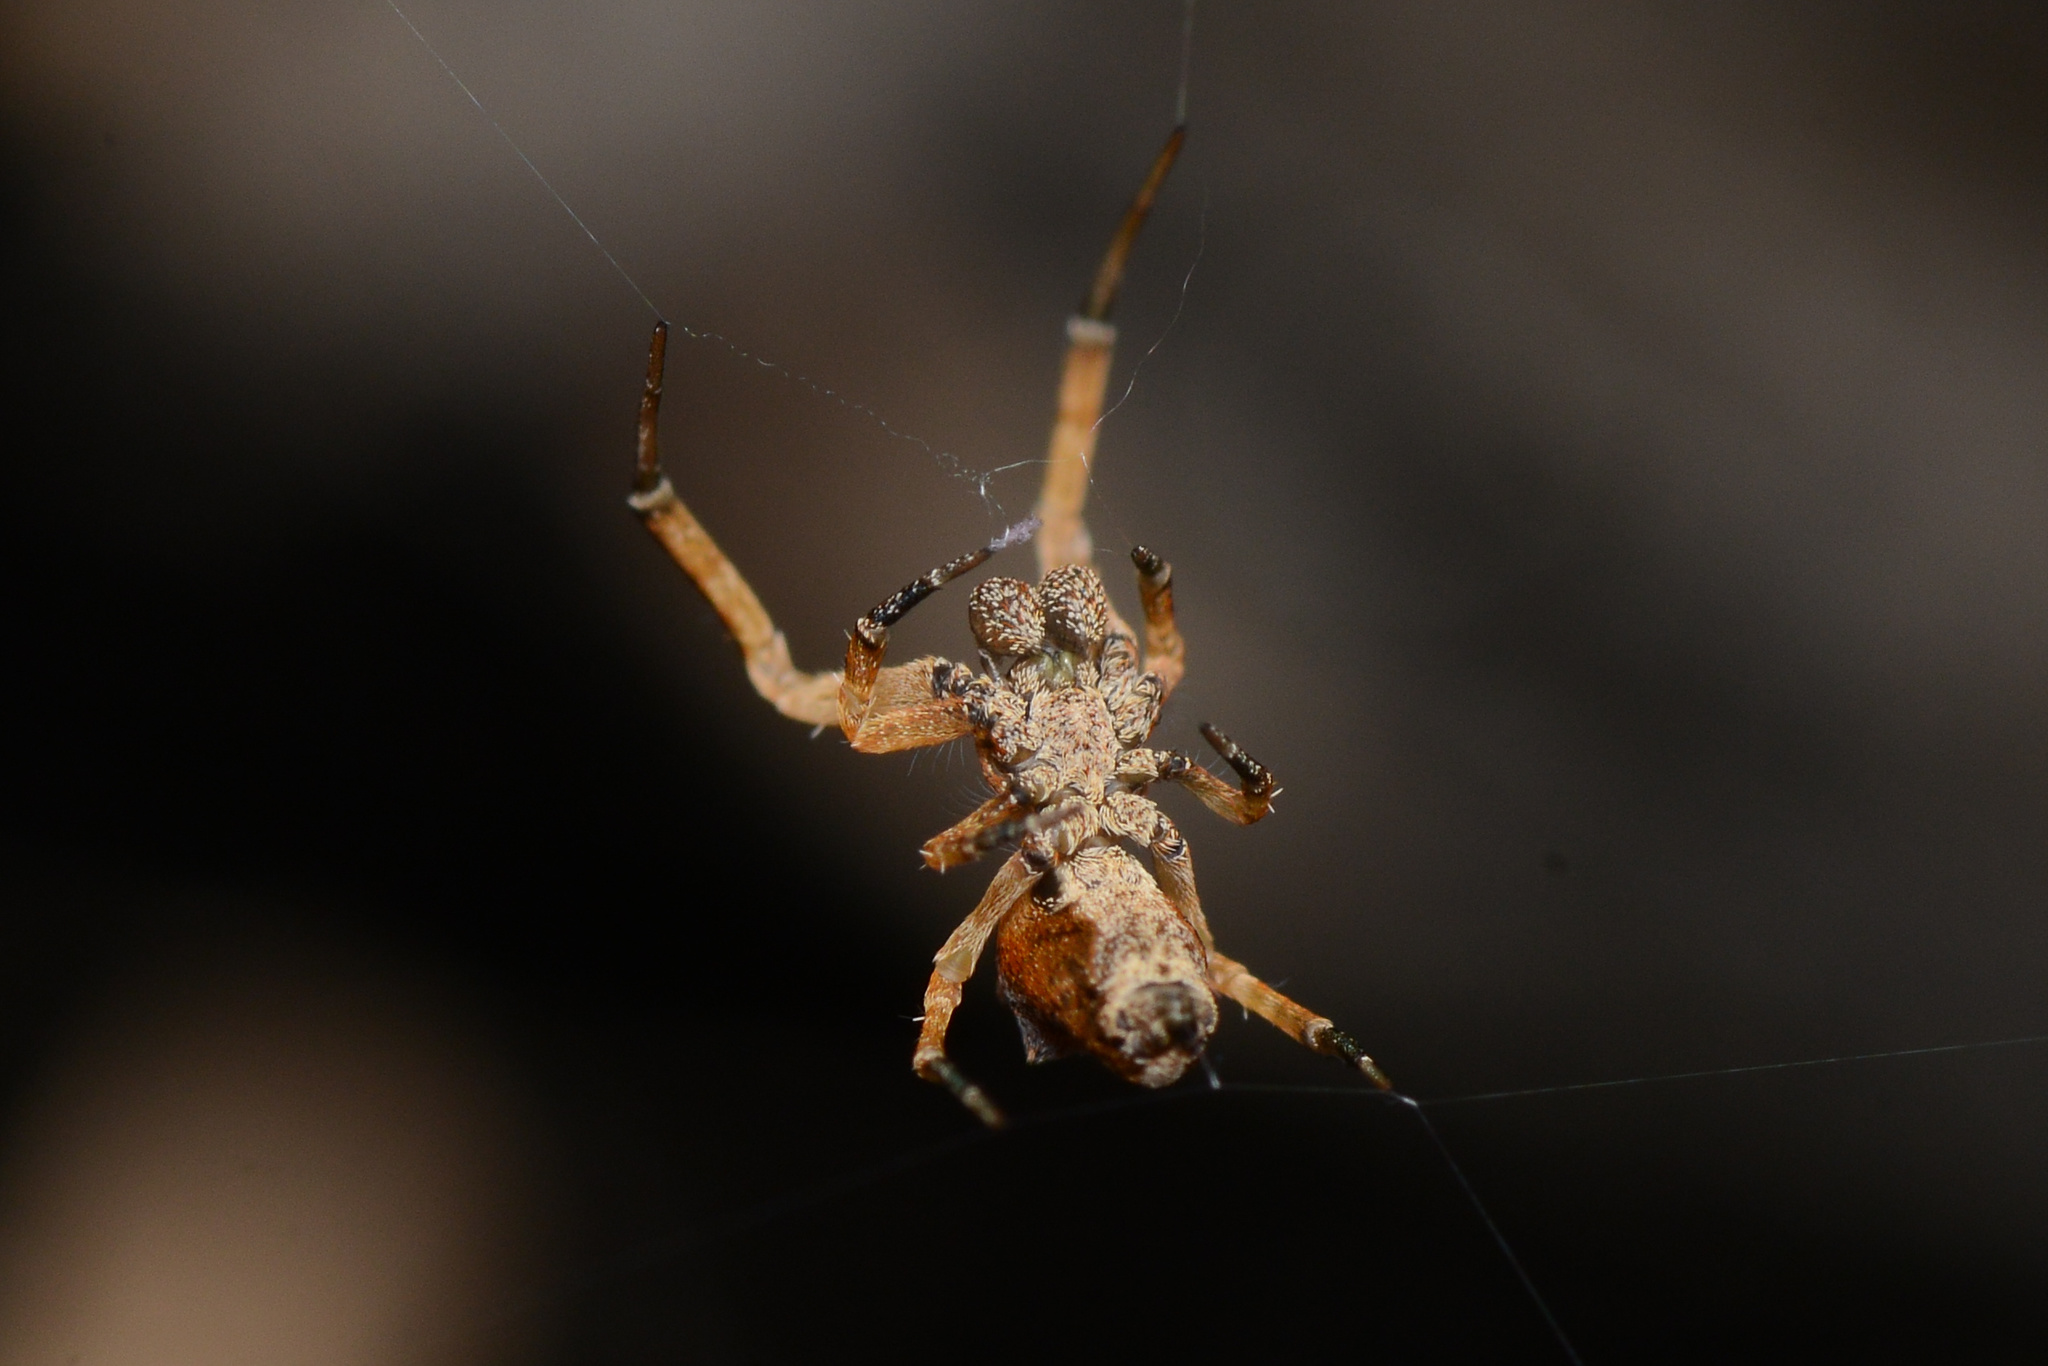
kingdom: Animalia
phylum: Arthropoda
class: Arachnida
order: Araneae
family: Uloboridae
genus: Philoponella
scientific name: Philoponella congregabilis
